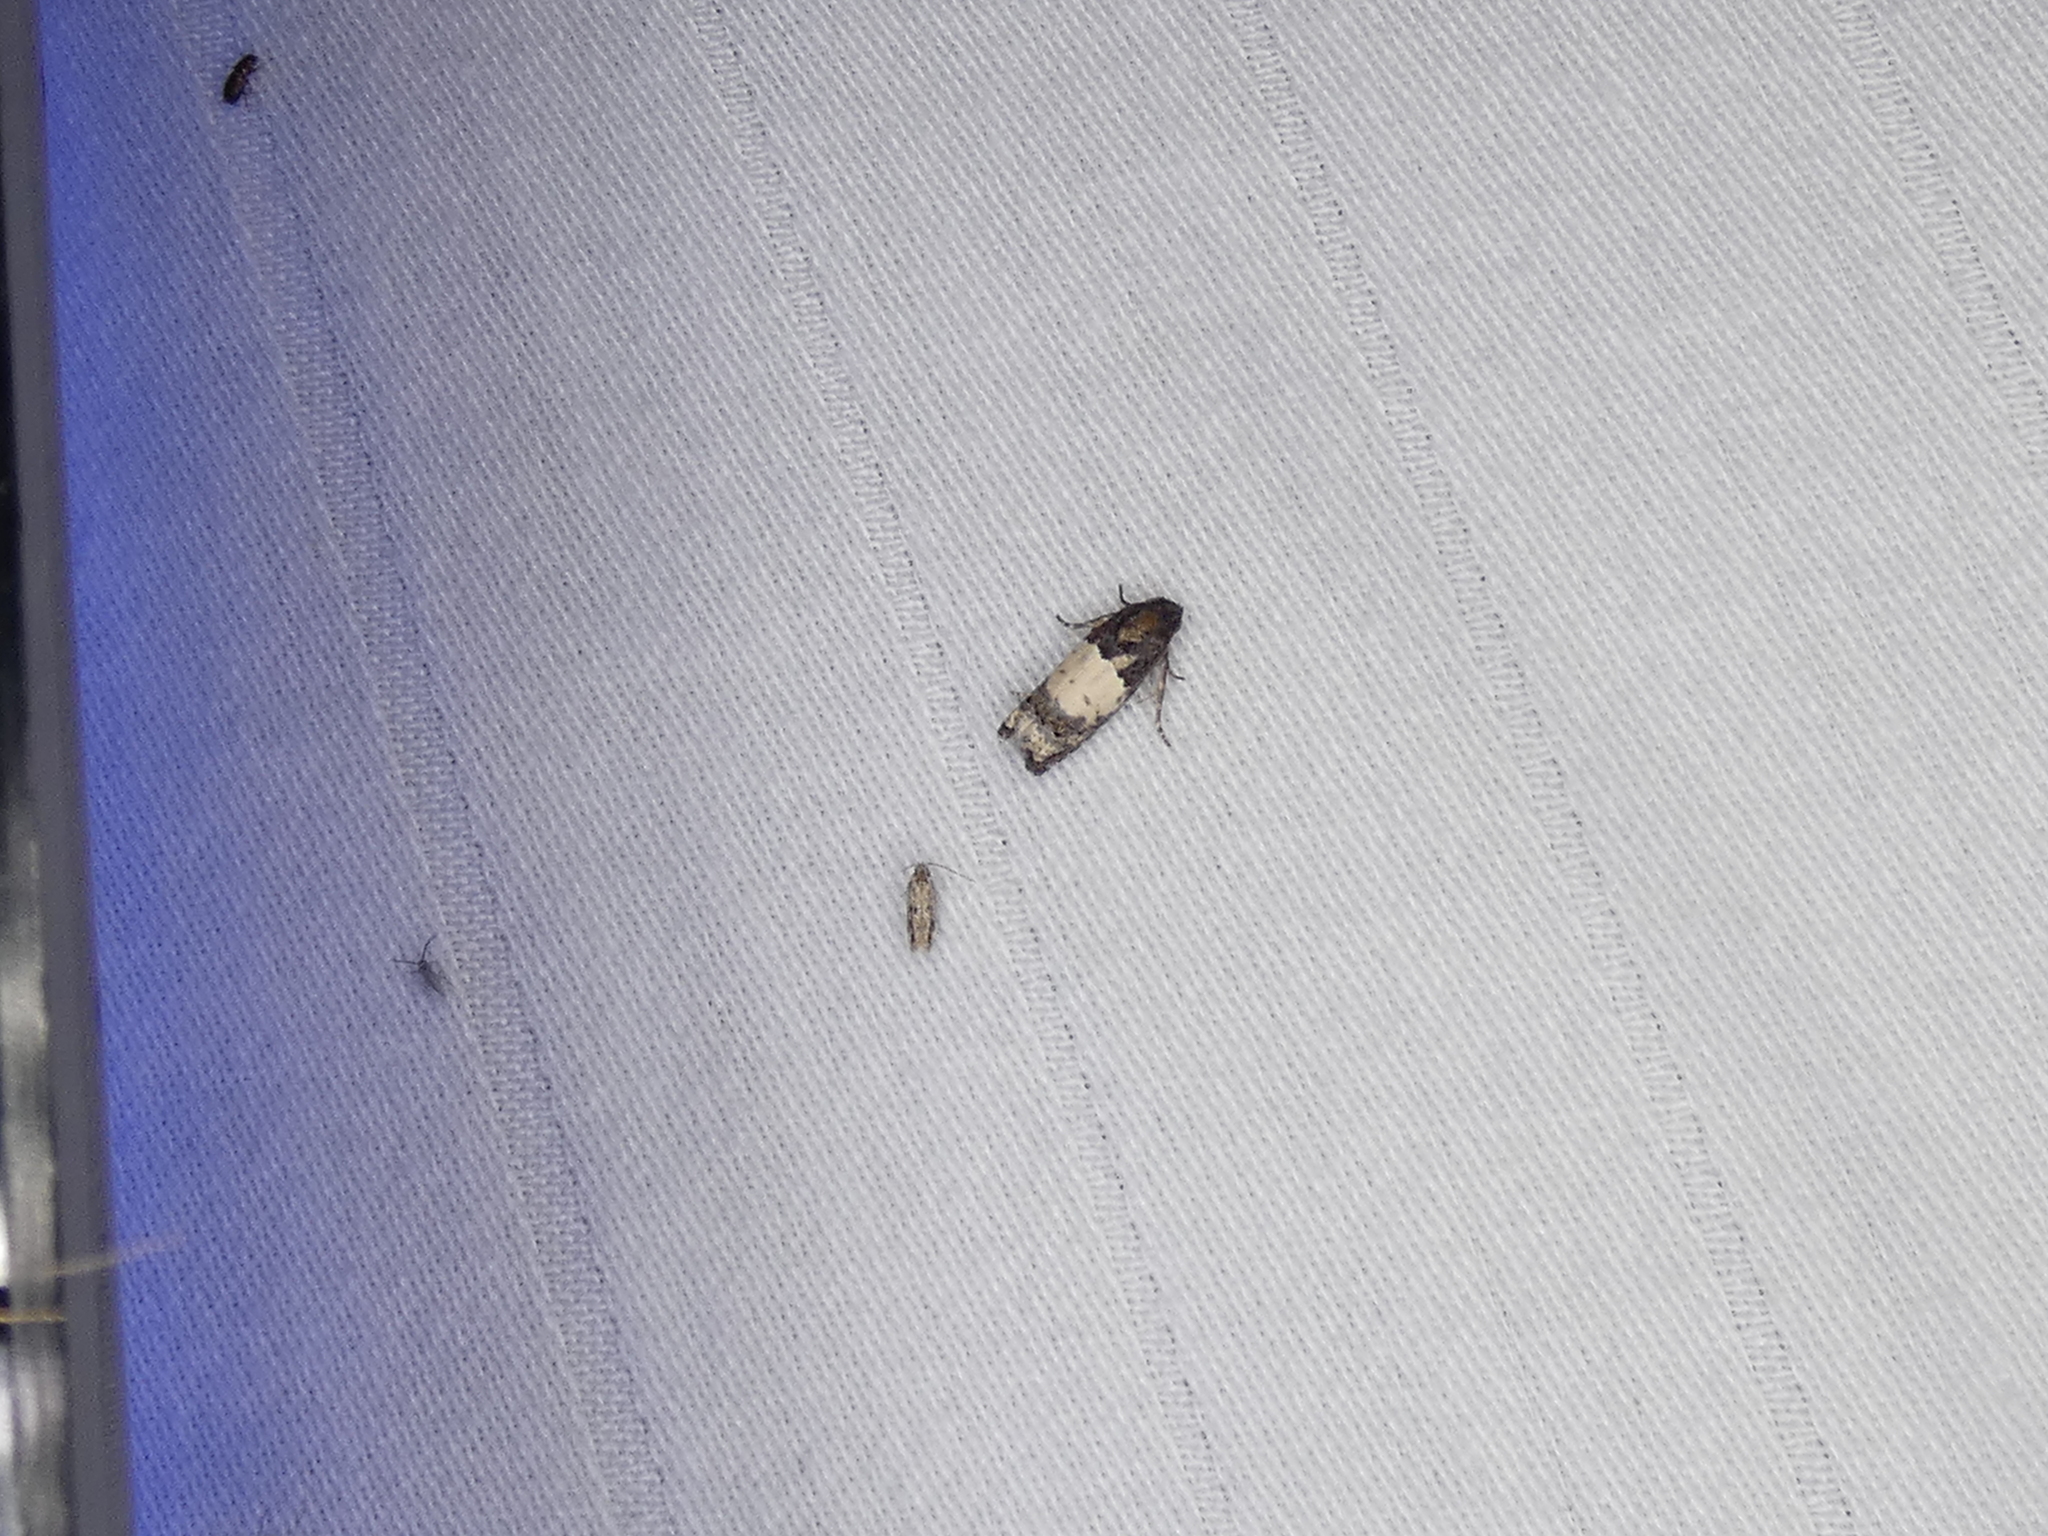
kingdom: Animalia
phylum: Arthropoda
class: Insecta
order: Lepidoptera
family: Tortricidae
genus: Epiblema
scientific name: Epiblema scudderiana
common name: Goldenrod gall moth
